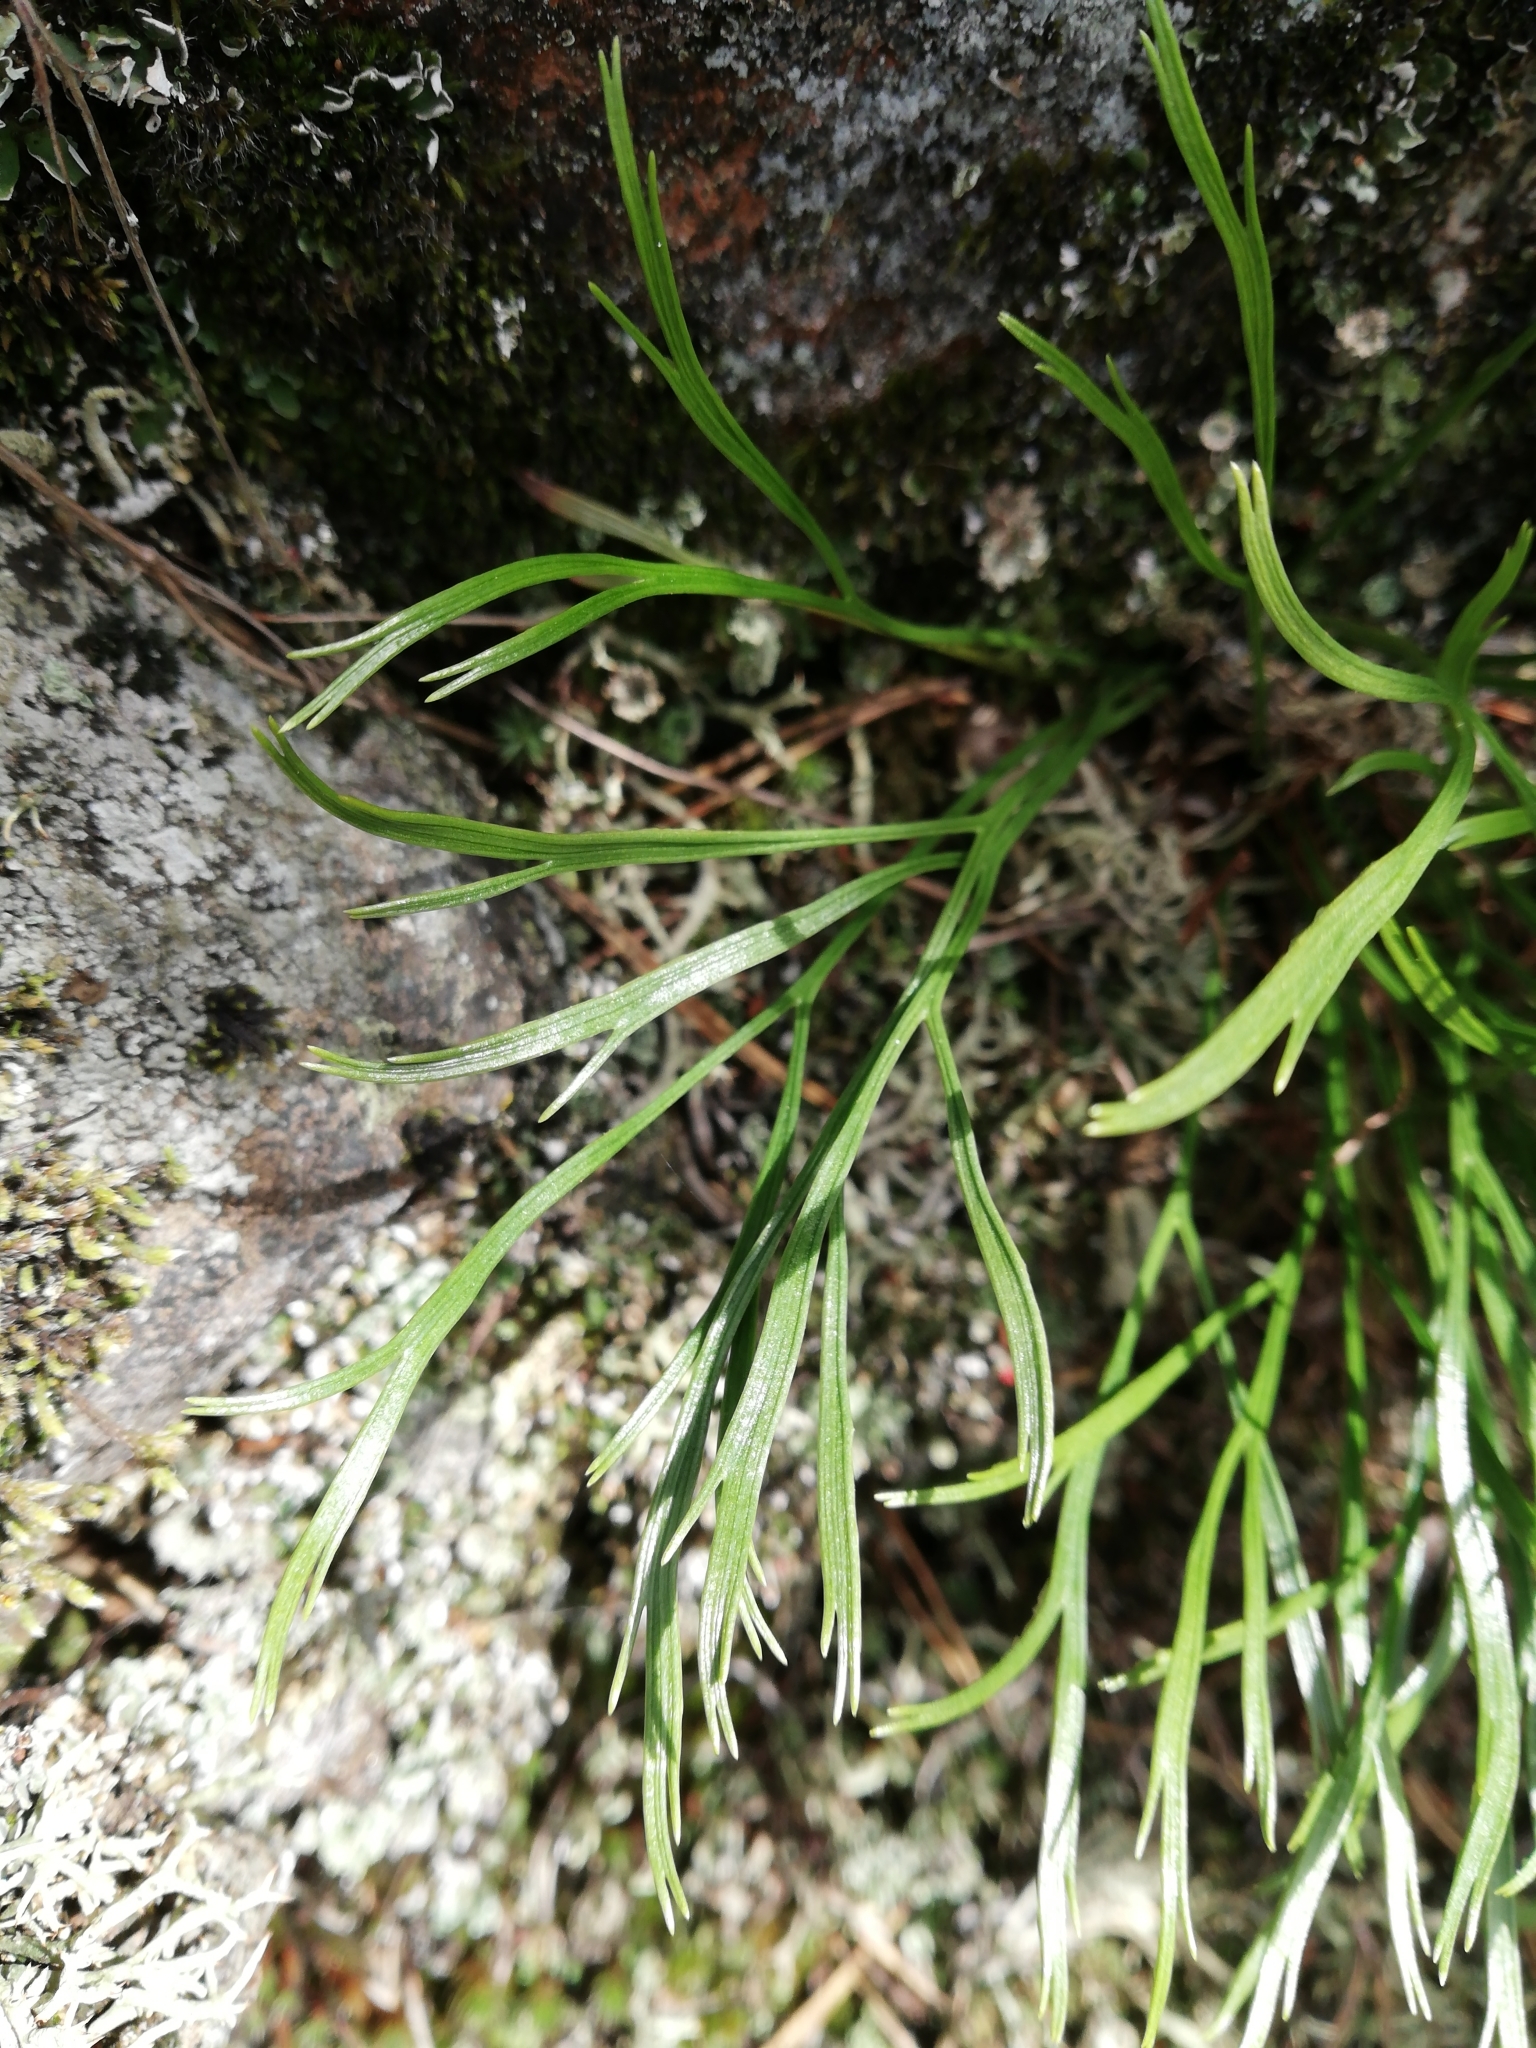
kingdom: Plantae
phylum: Tracheophyta
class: Polypodiopsida
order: Polypodiales
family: Aspleniaceae
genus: Asplenium
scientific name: Asplenium septentrionale
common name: Forked spleenwort
